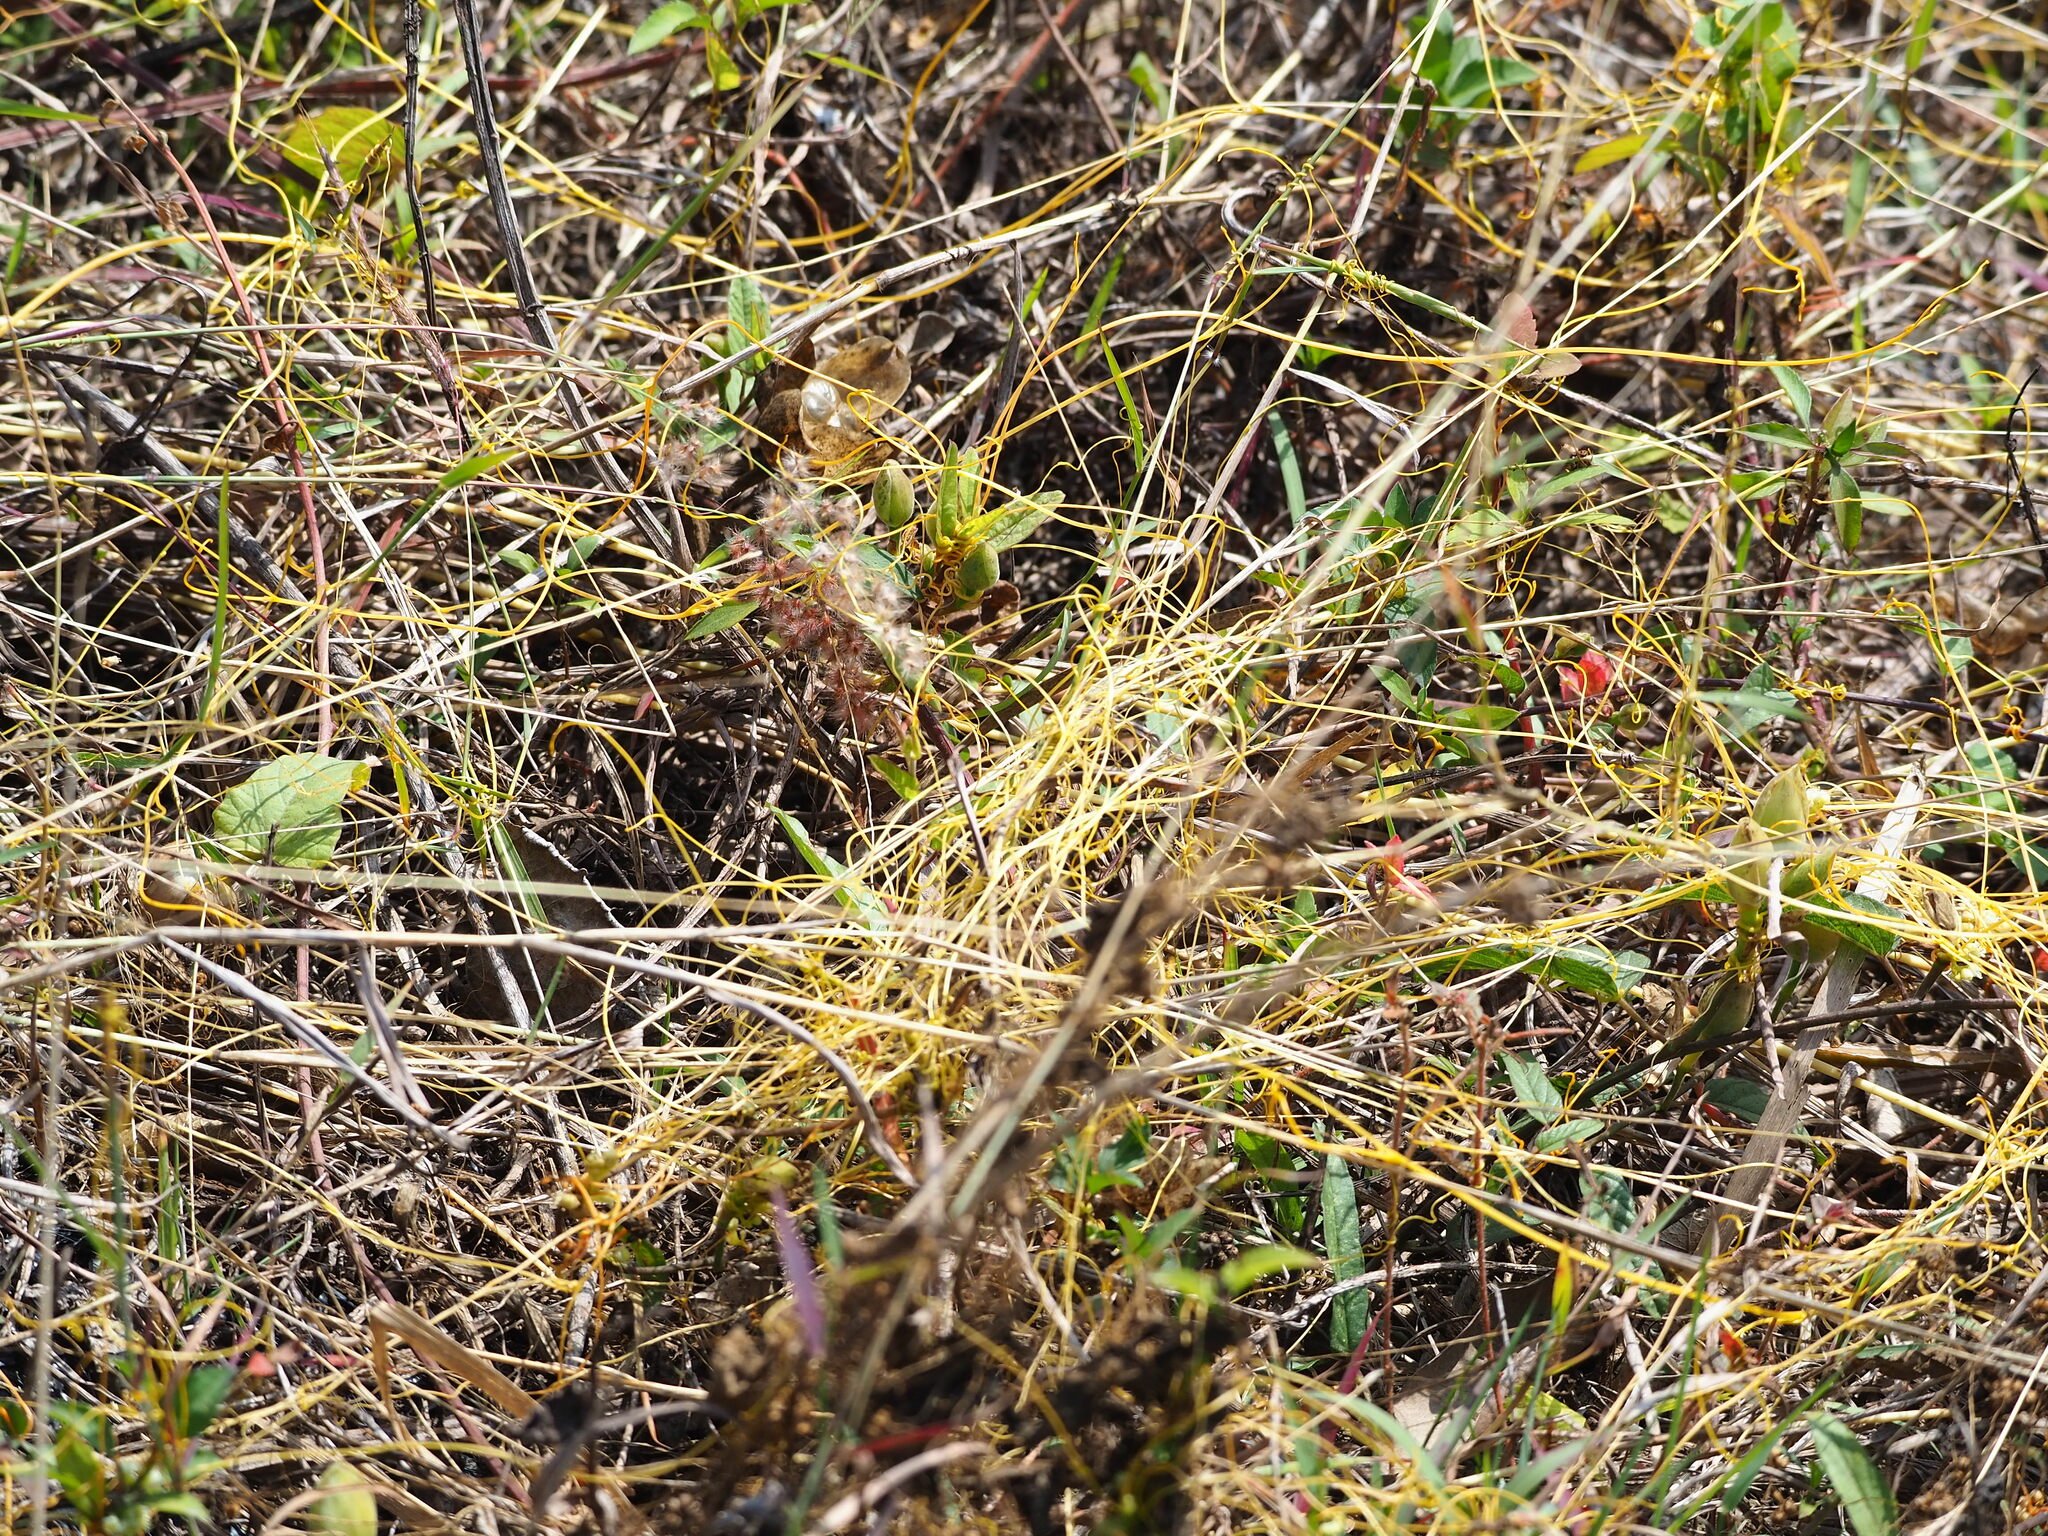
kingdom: Plantae
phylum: Tracheophyta
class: Magnoliopsida
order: Solanales
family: Convolvulaceae
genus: Cuscuta
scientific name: Cuscuta campestris
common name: Yellow dodder
